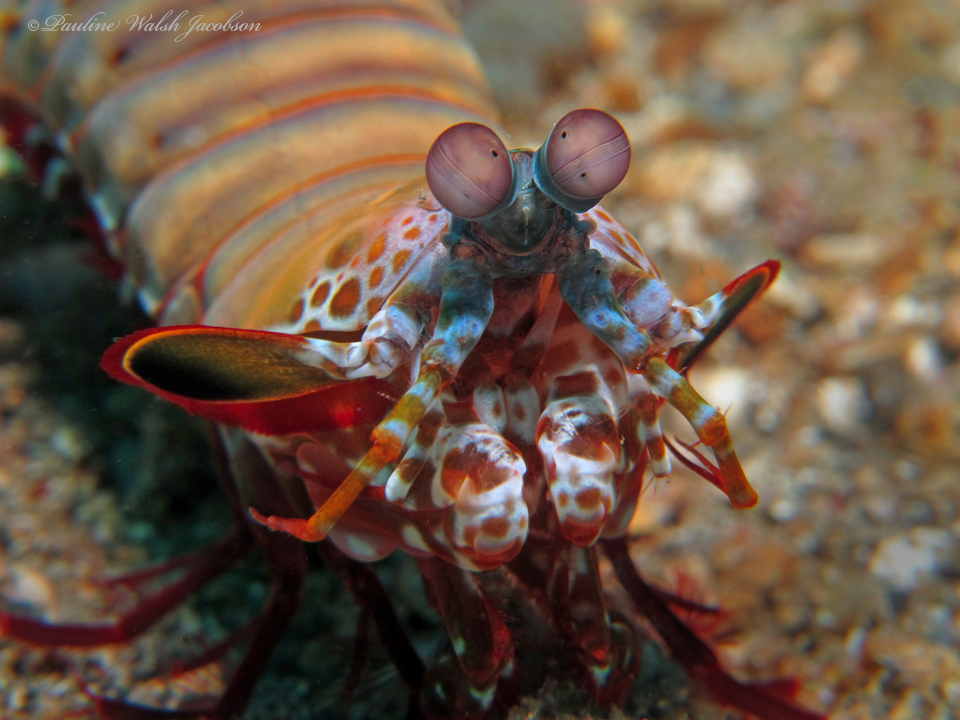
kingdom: Animalia
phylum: Arthropoda
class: Malacostraca
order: Stomatopoda
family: Odontodactylidae
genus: Odontodactylus
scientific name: Odontodactylus scyllarus
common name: Peacock mantis shrimp
